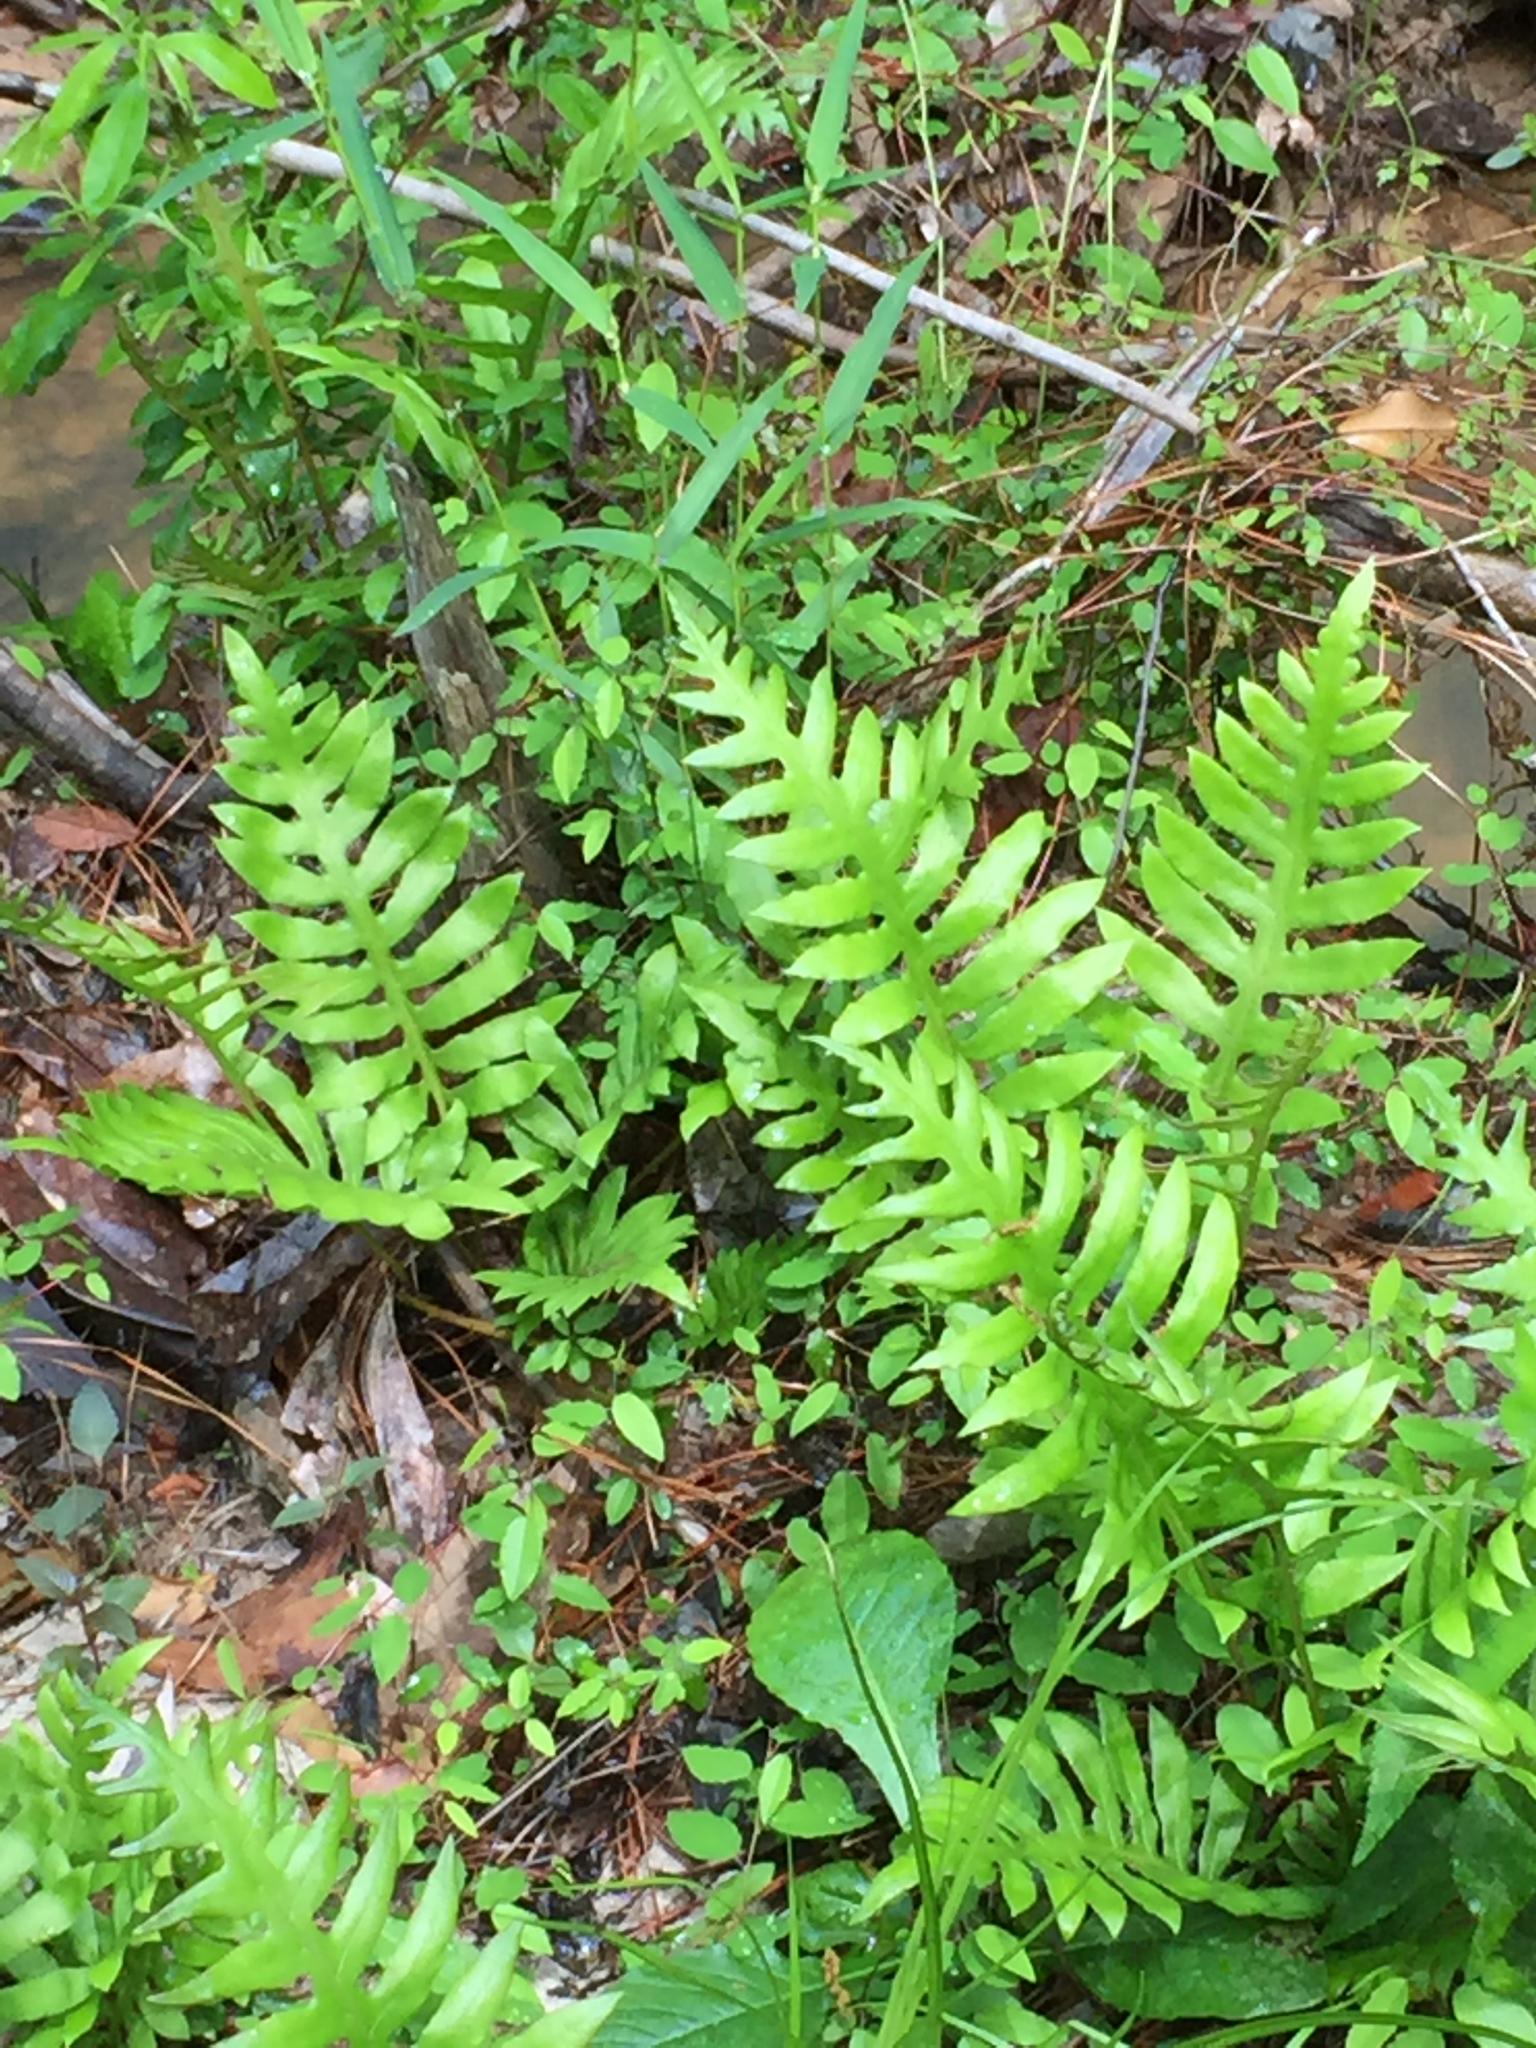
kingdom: Plantae
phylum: Tracheophyta
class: Polypodiopsida
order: Polypodiales
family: Blechnaceae
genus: Lorinseria
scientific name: Lorinseria areolata
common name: Dwarf chain fern
